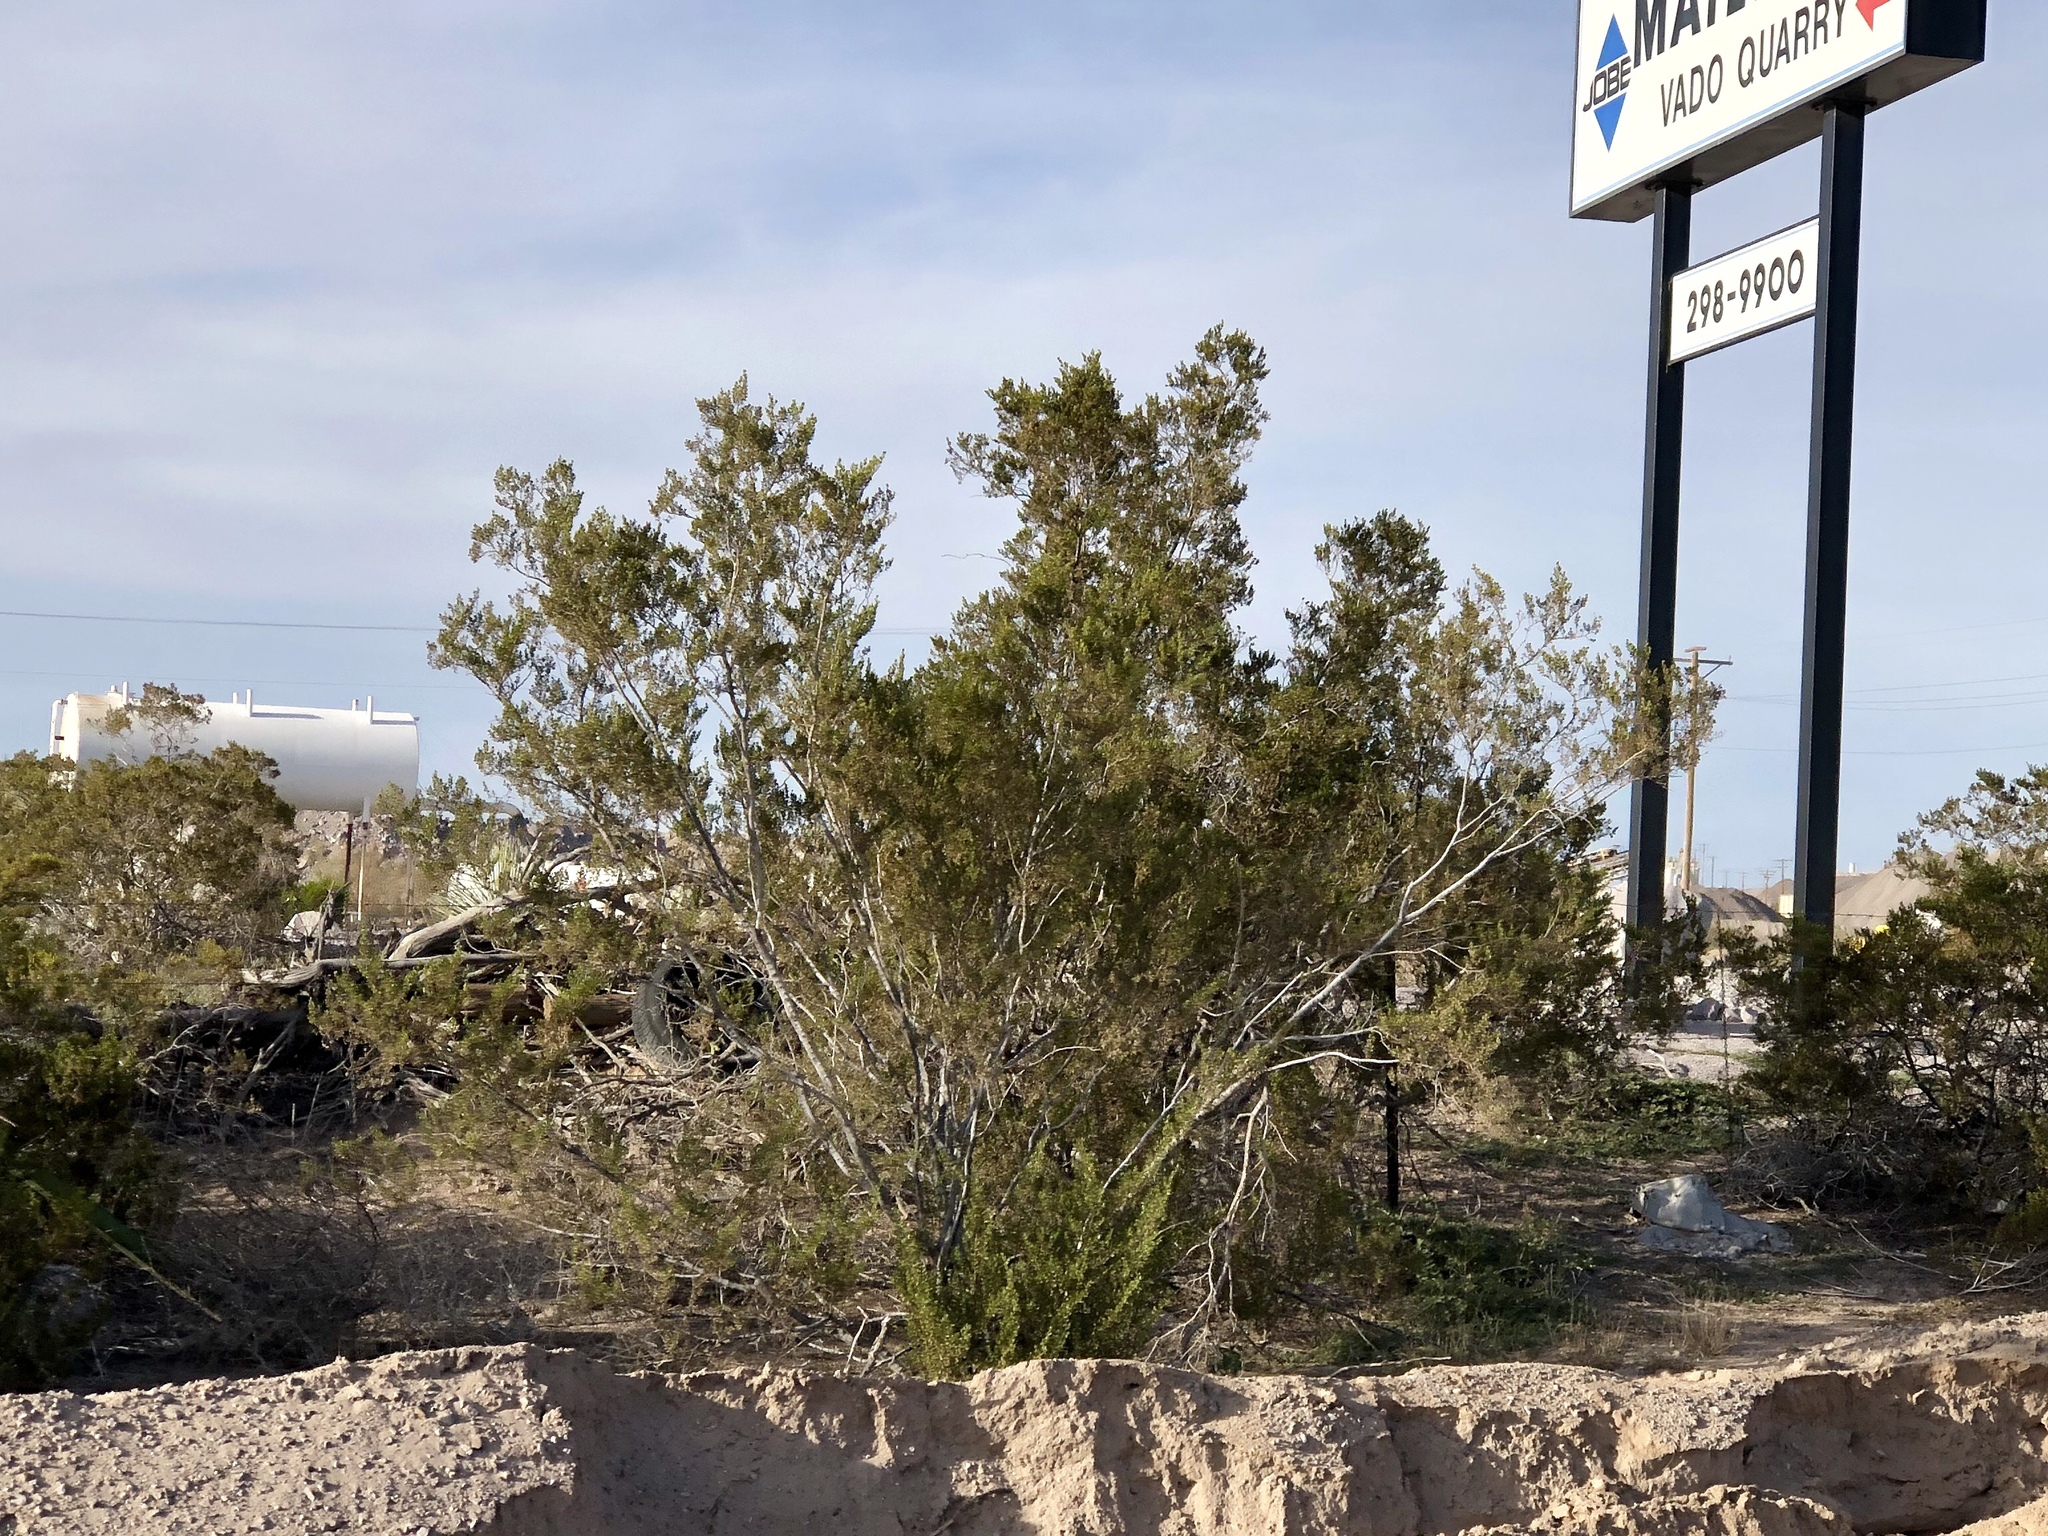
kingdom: Plantae
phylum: Tracheophyta
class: Magnoliopsida
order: Zygophyllales
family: Zygophyllaceae
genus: Larrea
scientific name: Larrea tridentata
